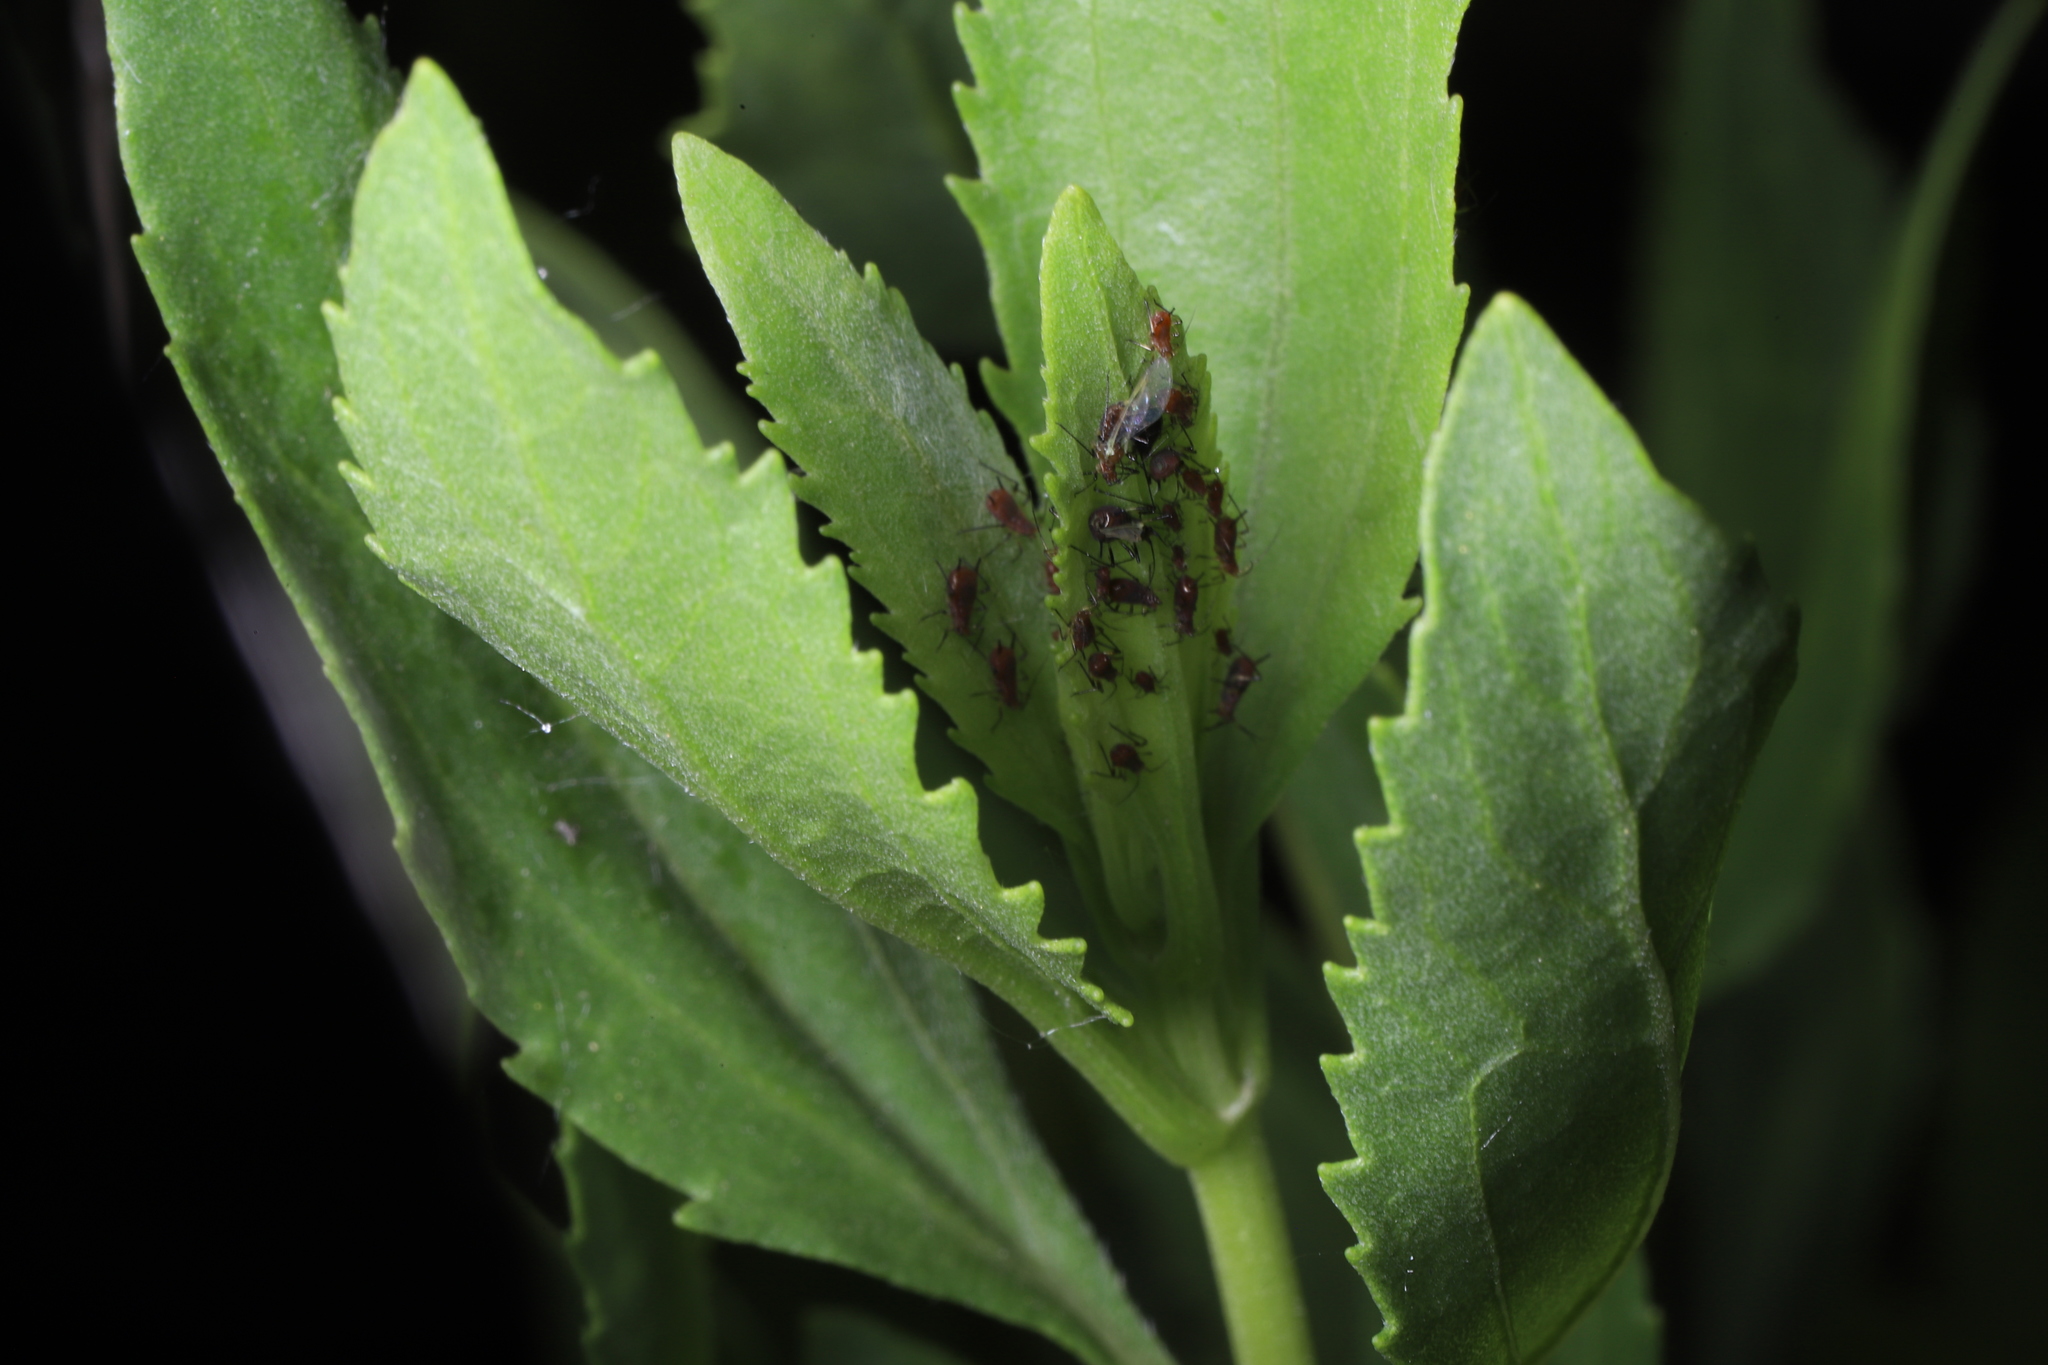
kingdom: Animalia
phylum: Arthropoda
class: Insecta
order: Hemiptera
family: Aphididae
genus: Uroleucon
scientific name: Uroleucon ambrosiae
